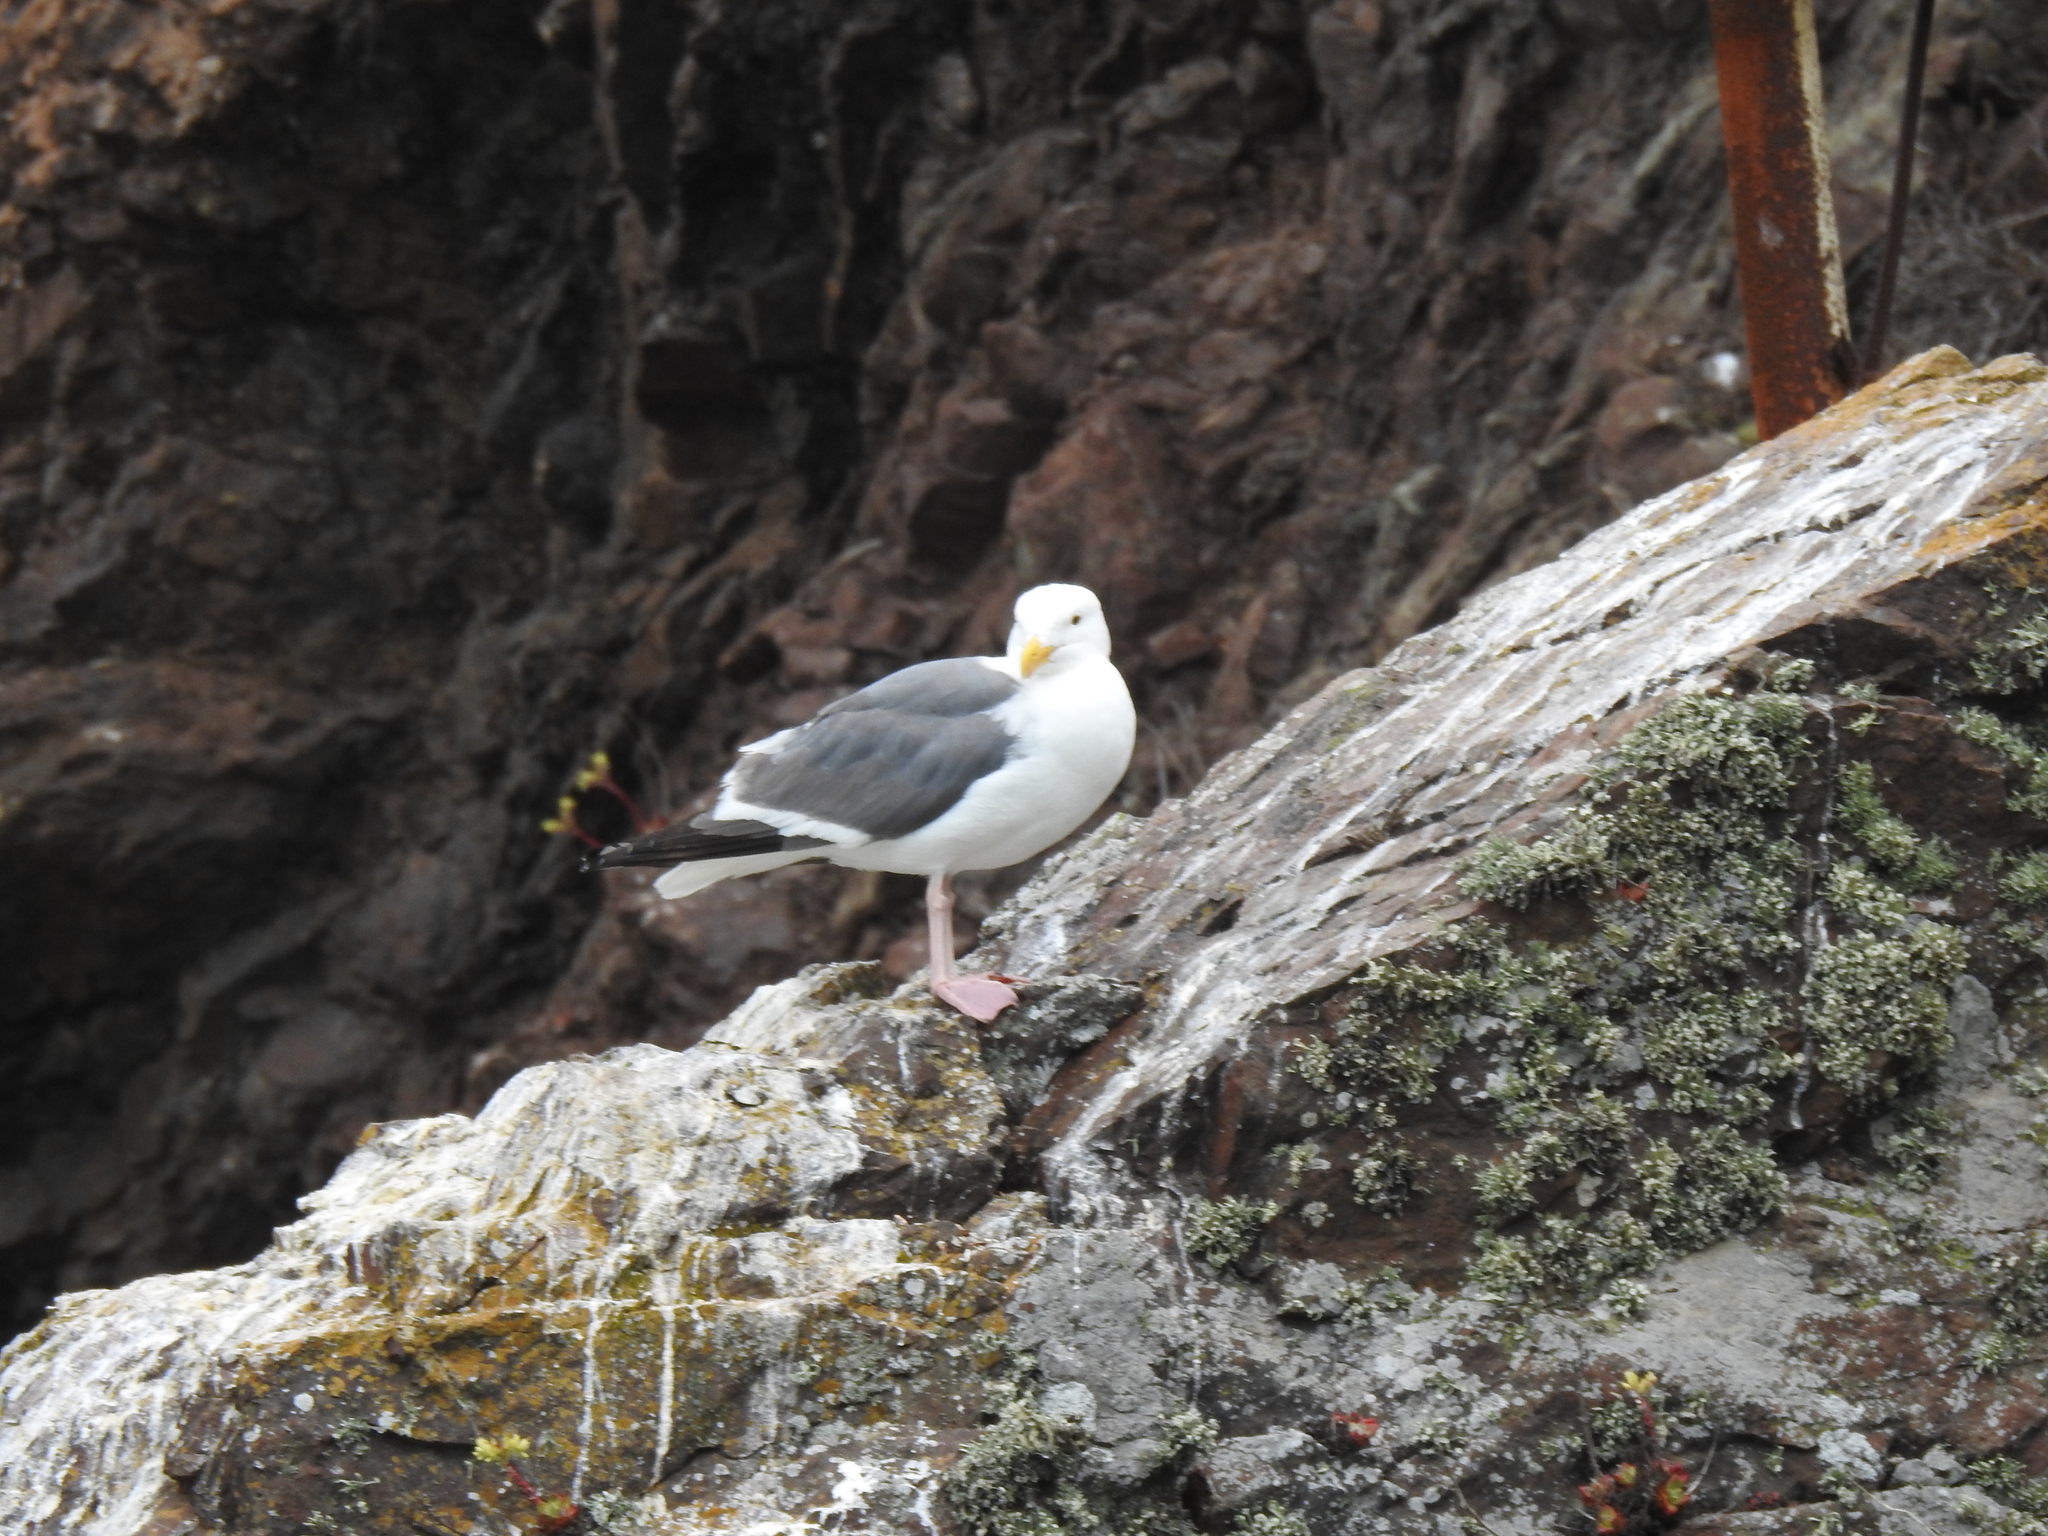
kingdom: Animalia
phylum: Chordata
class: Aves
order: Charadriiformes
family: Laridae
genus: Larus
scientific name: Larus occidentalis
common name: Western gull
